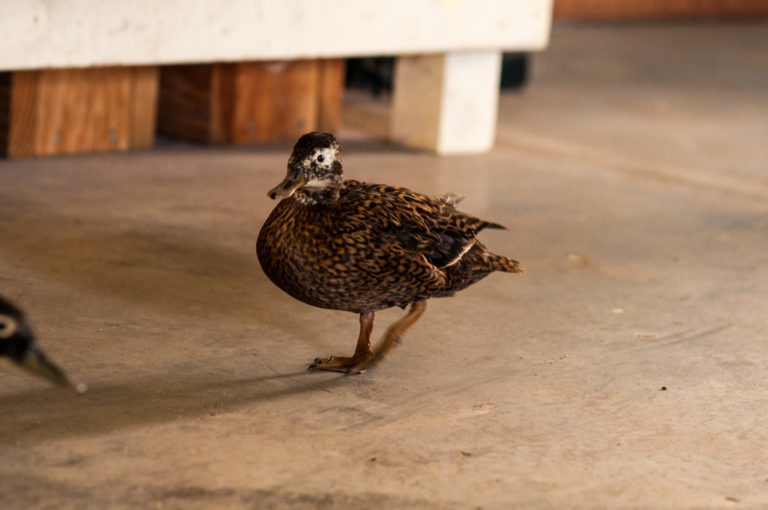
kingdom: Animalia
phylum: Chordata
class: Aves
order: Anseriformes
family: Anatidae
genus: Anas
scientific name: Anas laysanensis
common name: Laysan duck
